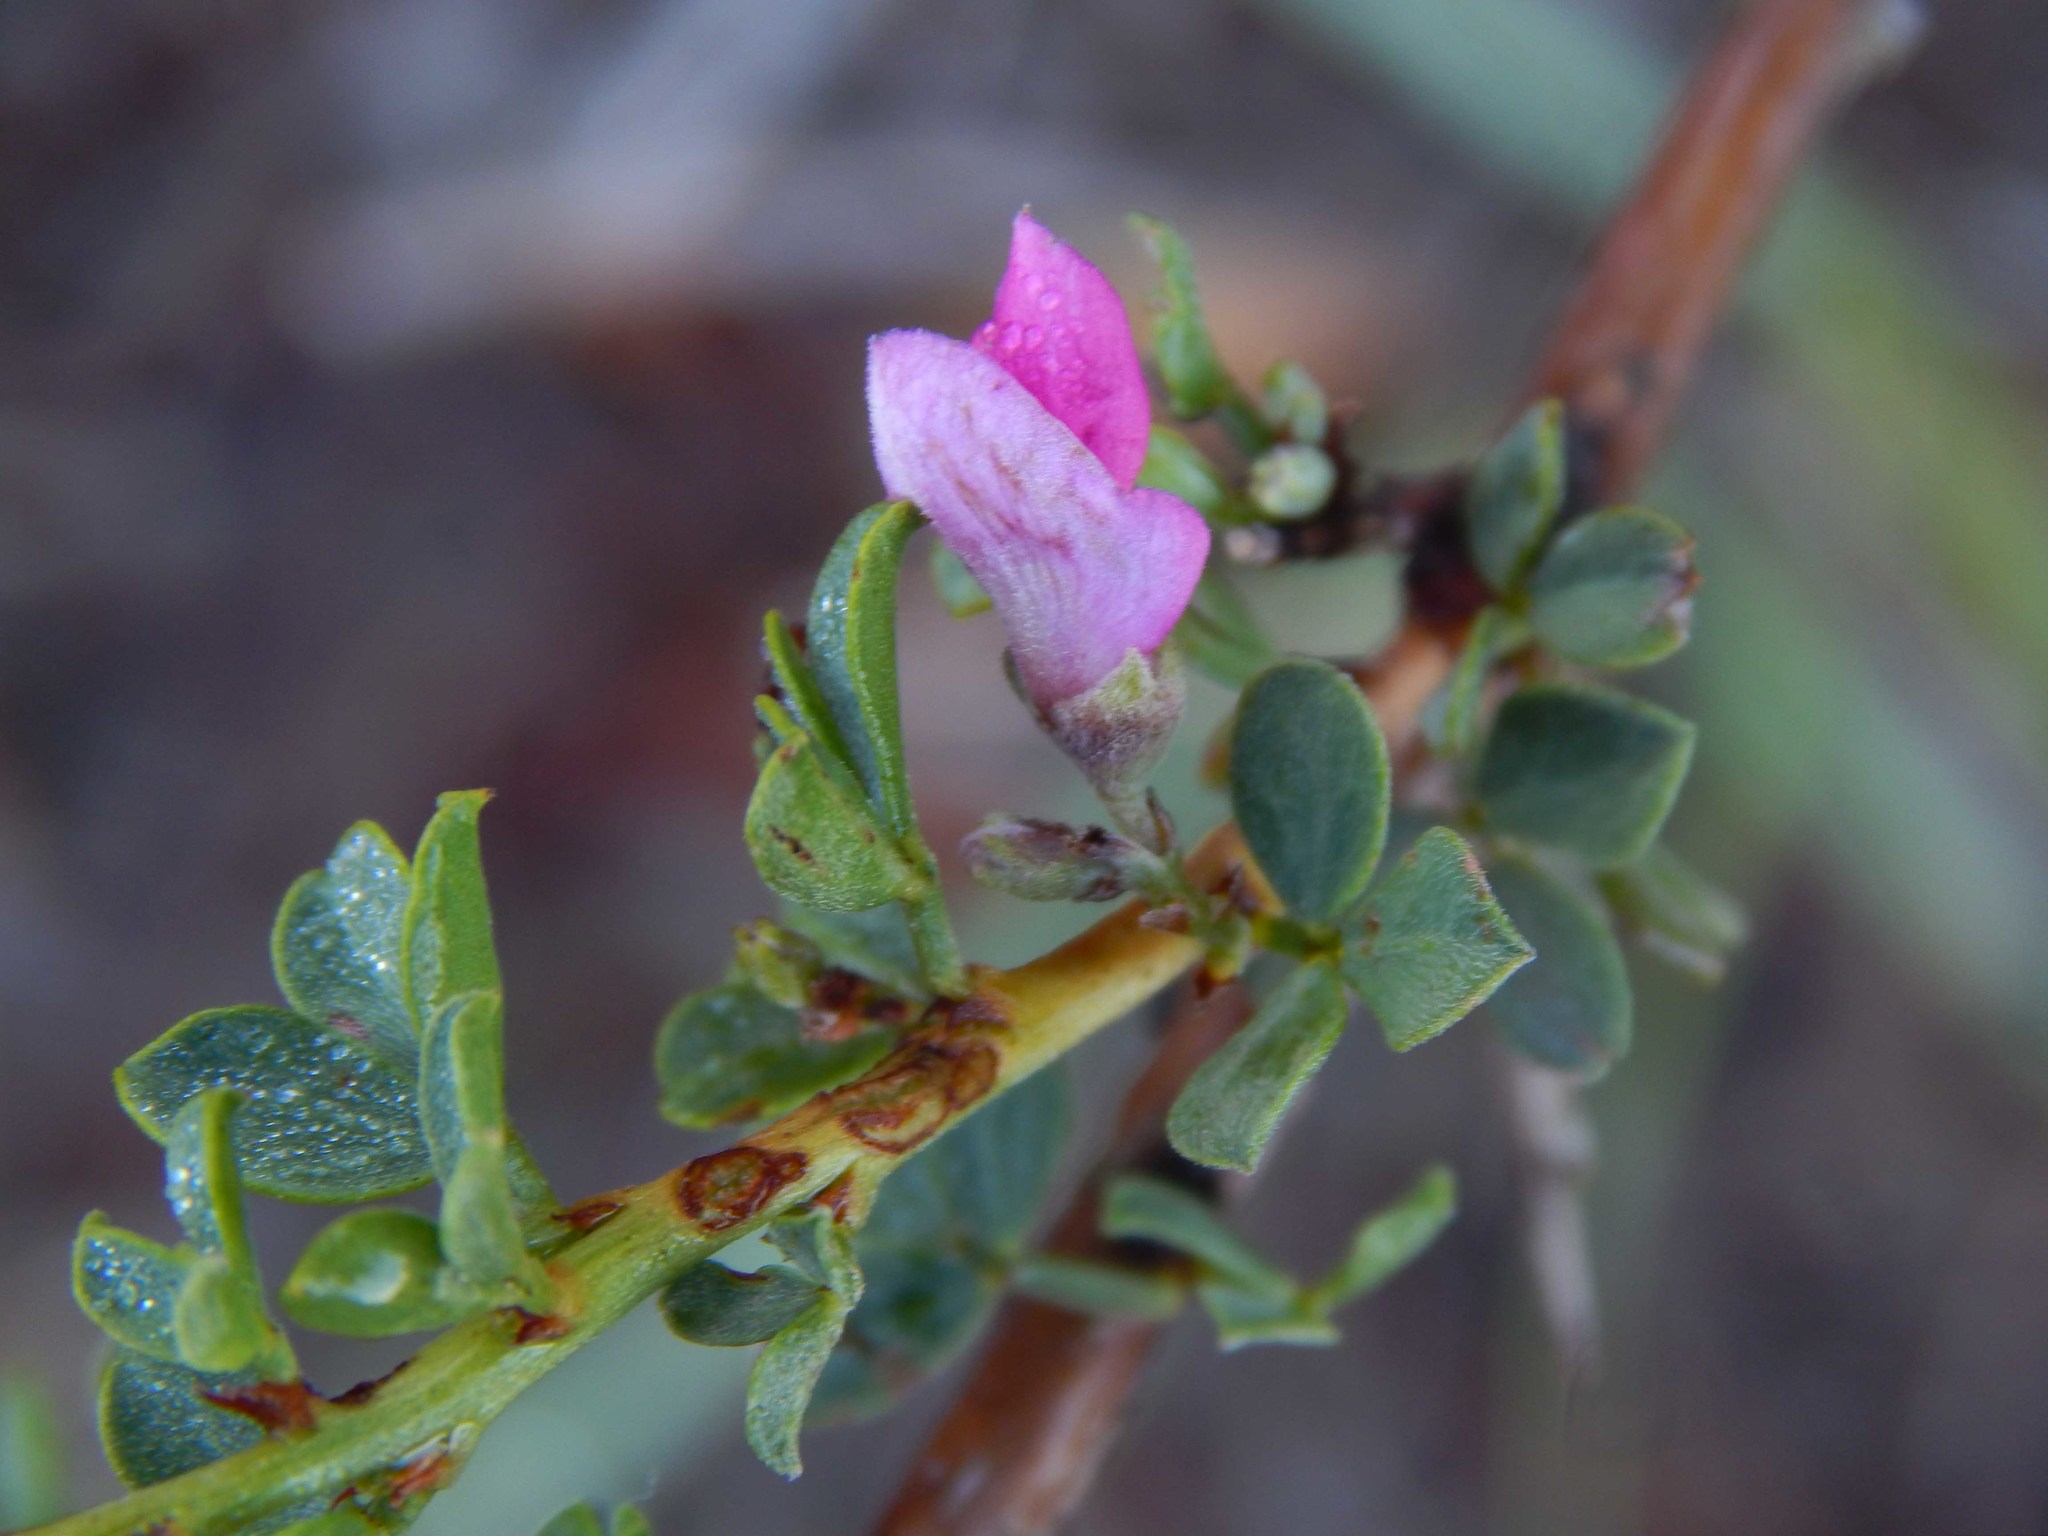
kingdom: Plantae
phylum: Tracheophyta
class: Magnoliopsida
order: Fabales
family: Fabaceae
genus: Indigofera
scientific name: Indigofera nigromontana
